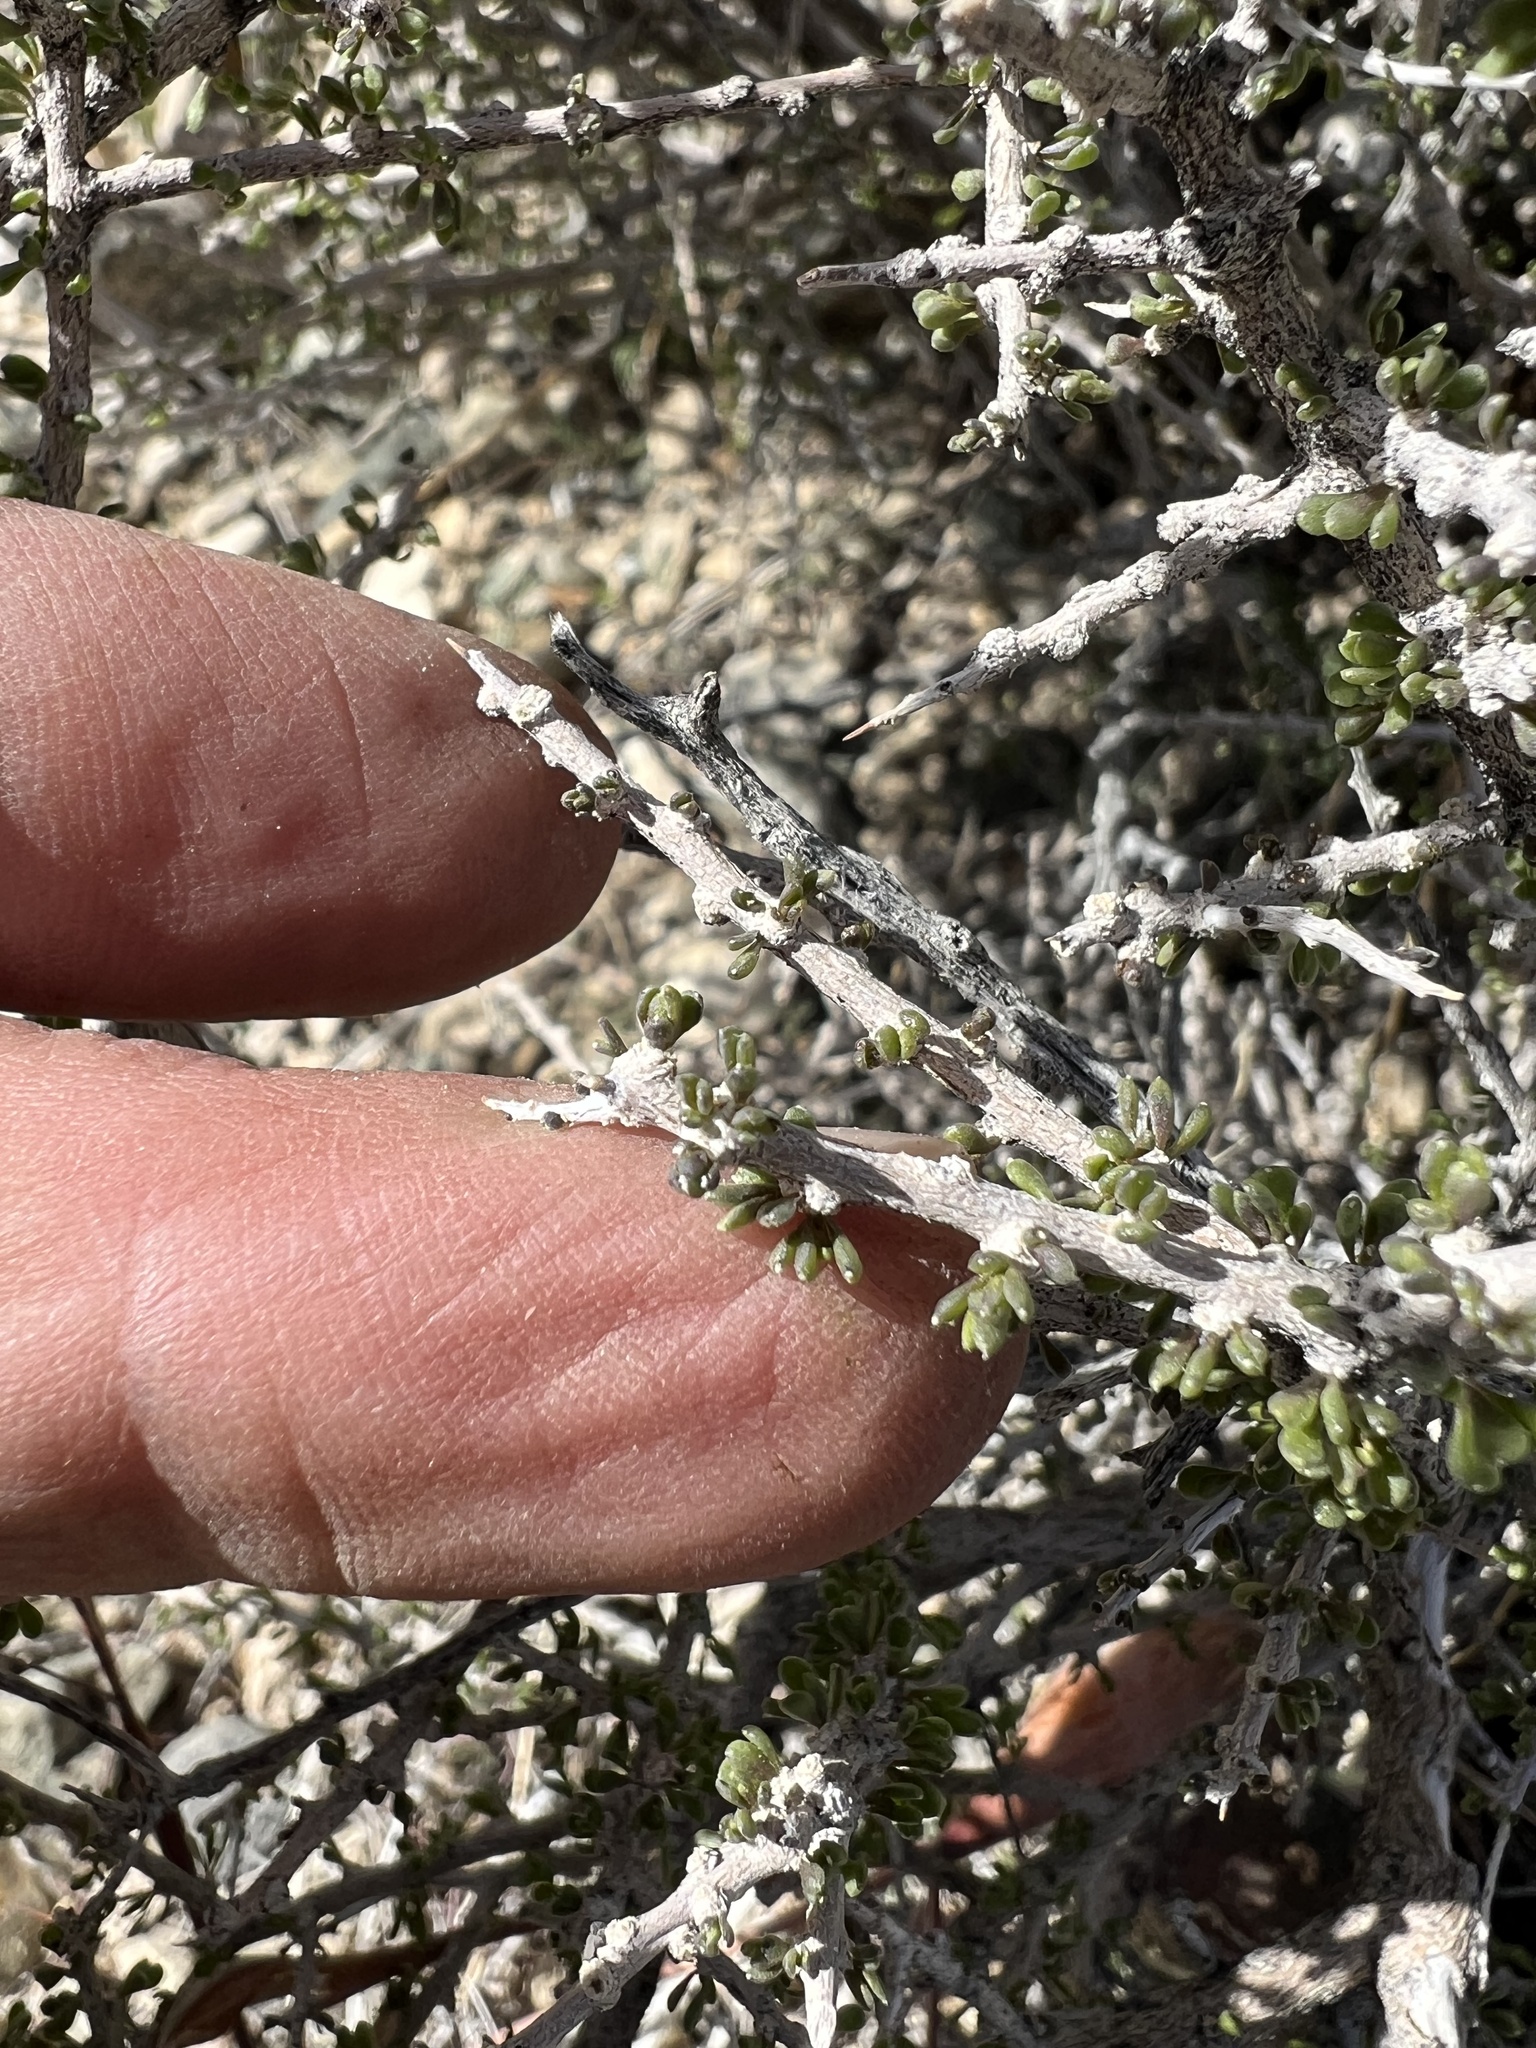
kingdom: Plantae
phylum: Tracheophyta
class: Magnoliopsida
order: Solanales
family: Solanaceae
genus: Lycium
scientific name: Lycium andersonii
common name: Water-jacket
